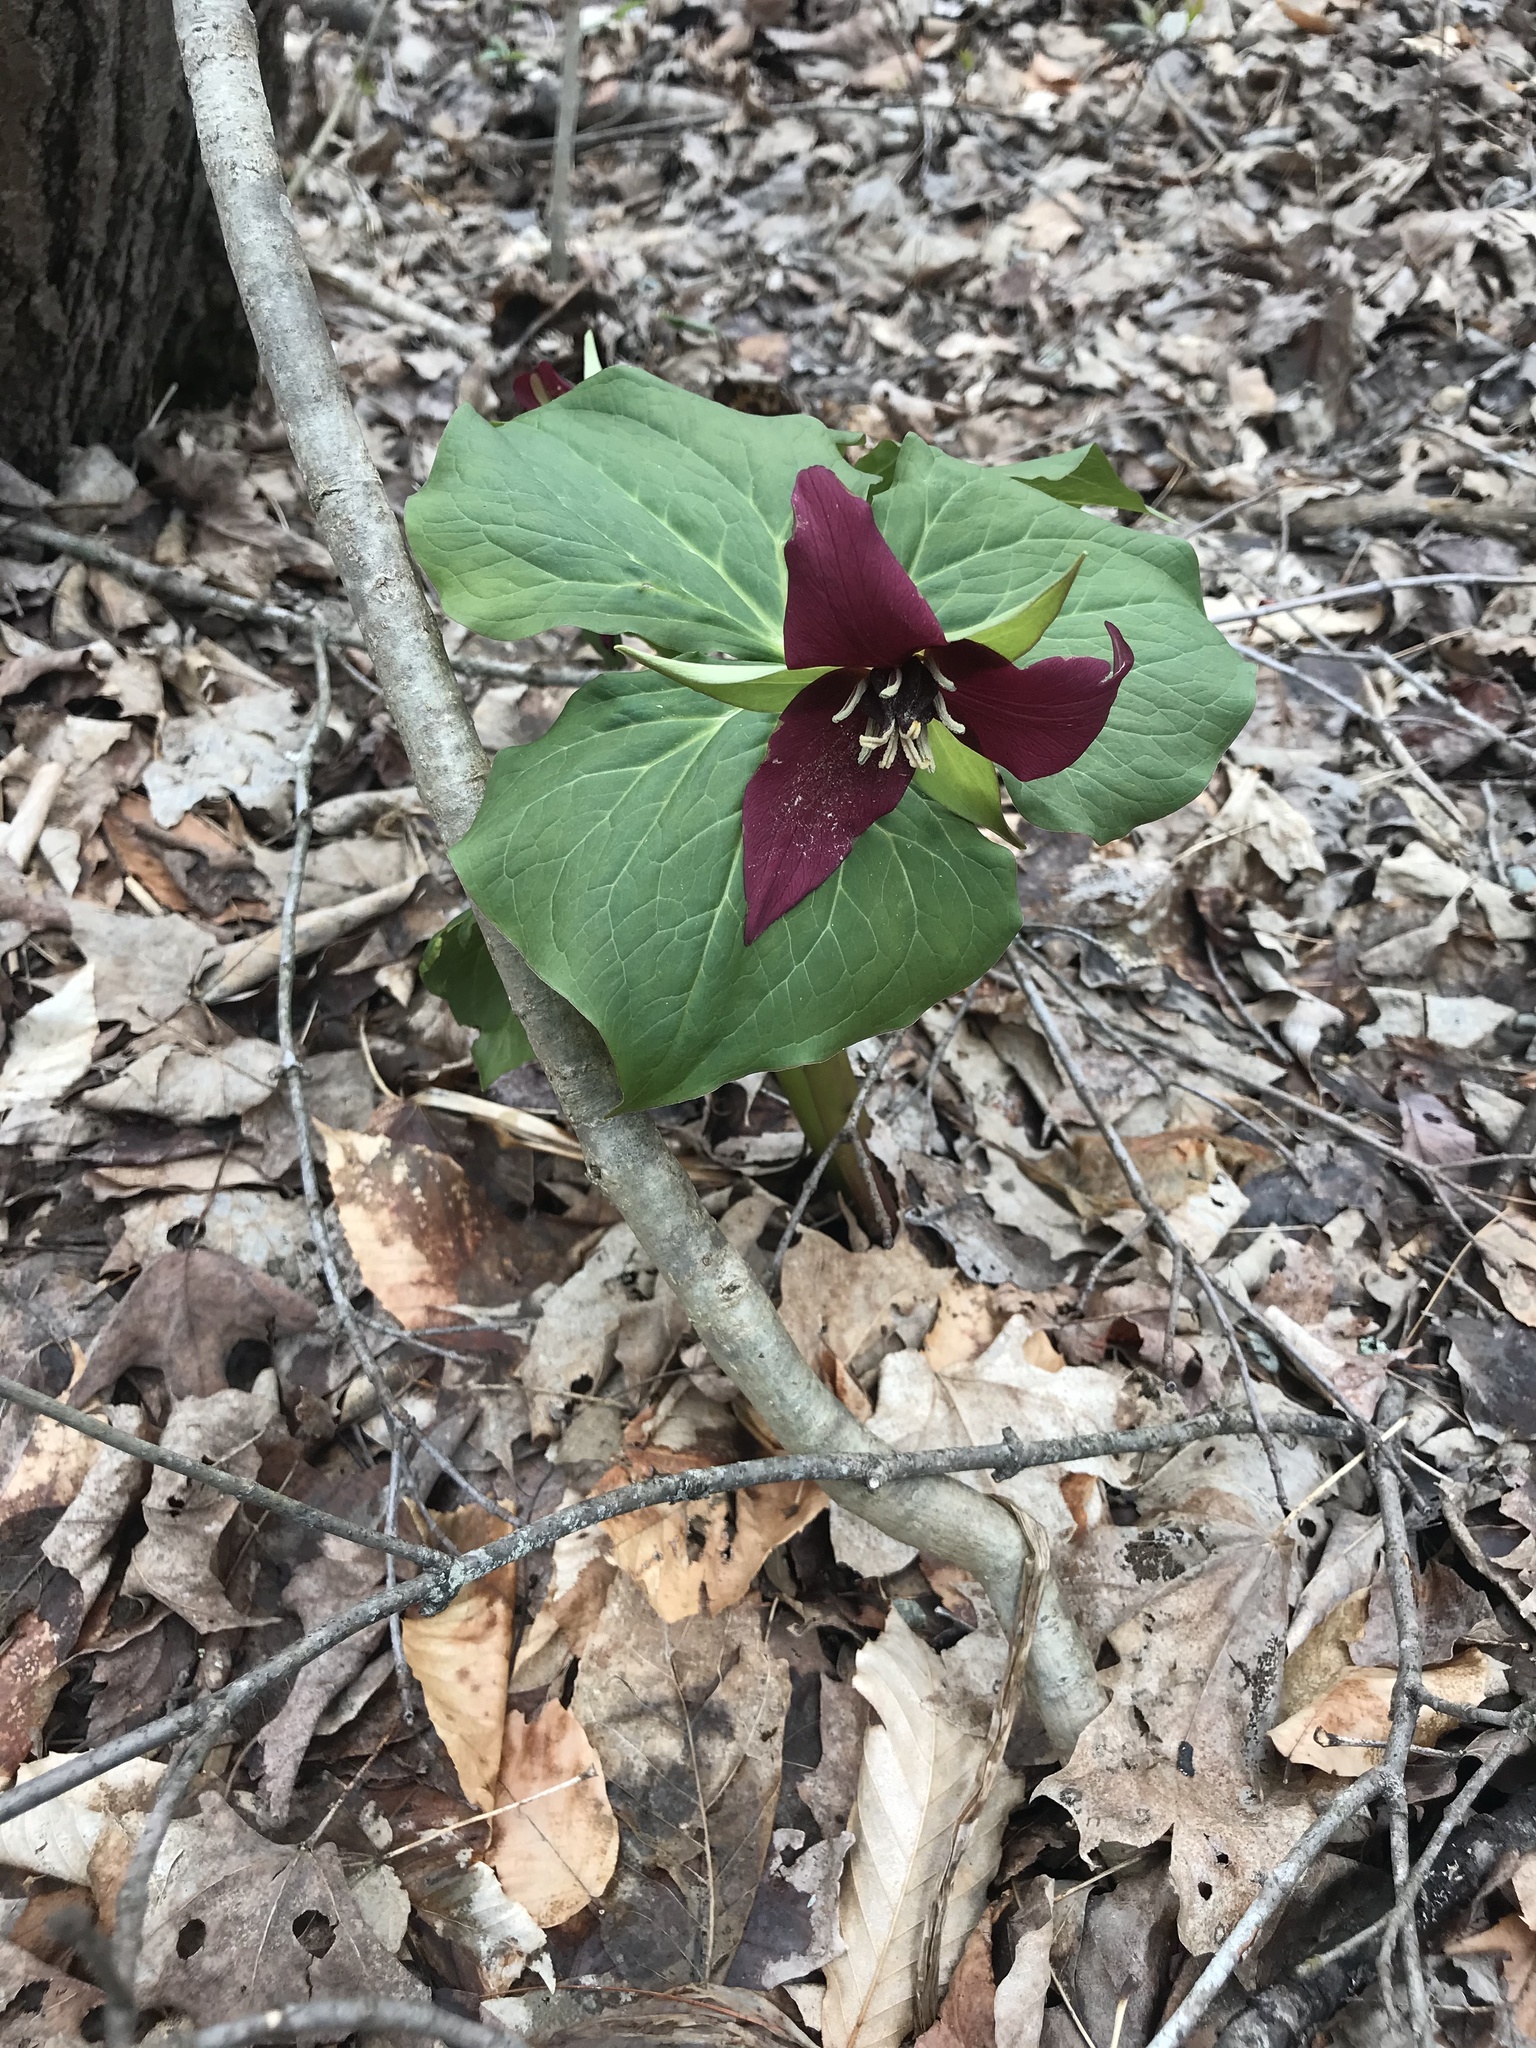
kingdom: Plantae
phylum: Tracheophyta
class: Liliopsida
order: Liliales
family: Melanthiaceae
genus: Trillium
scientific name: Trillium erectum
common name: Purple trillium
